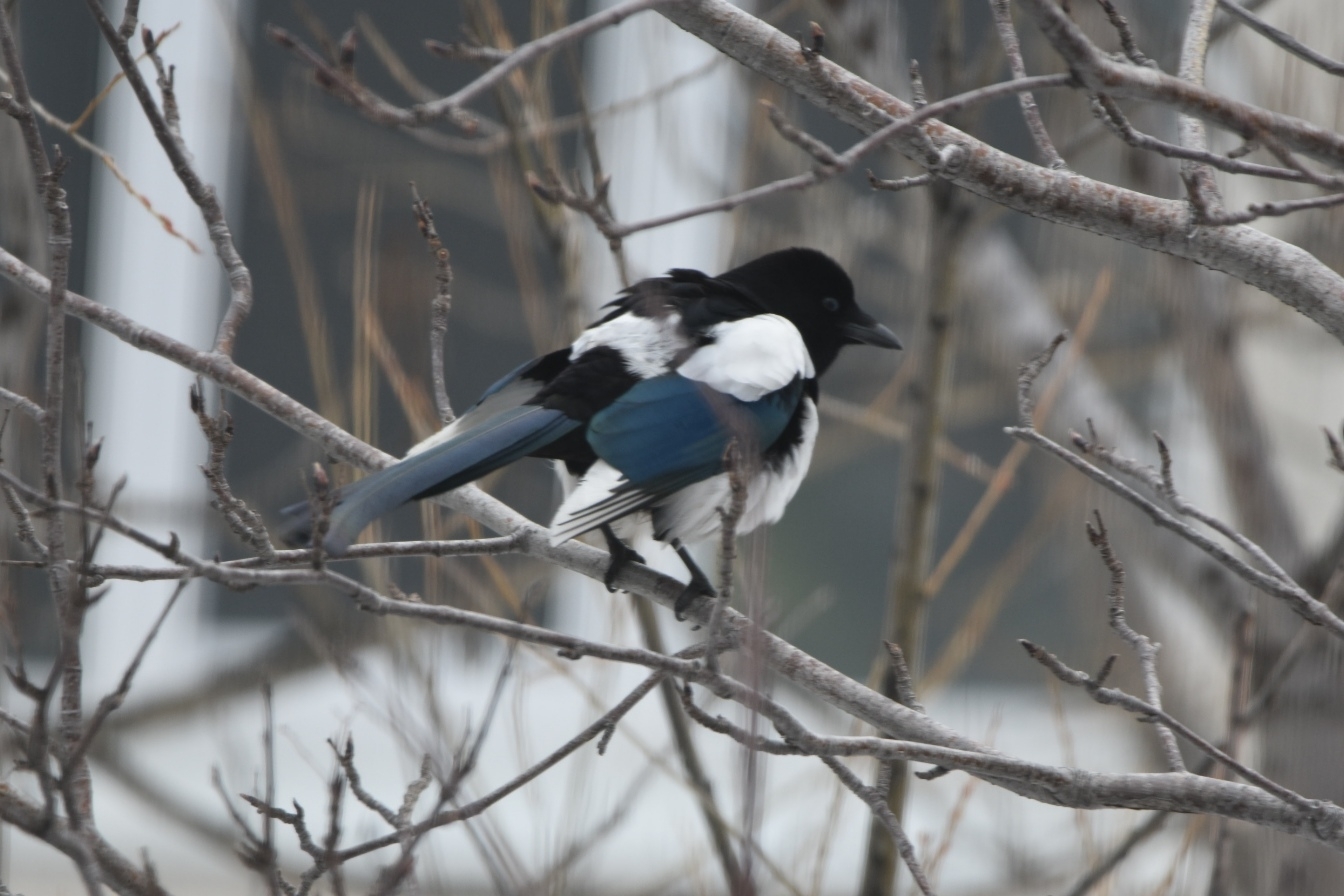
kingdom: Animalia
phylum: Chordata
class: Aves
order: Passeriformes
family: Corvidae
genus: Pica
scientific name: Pica pica
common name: Eurasian magpie
